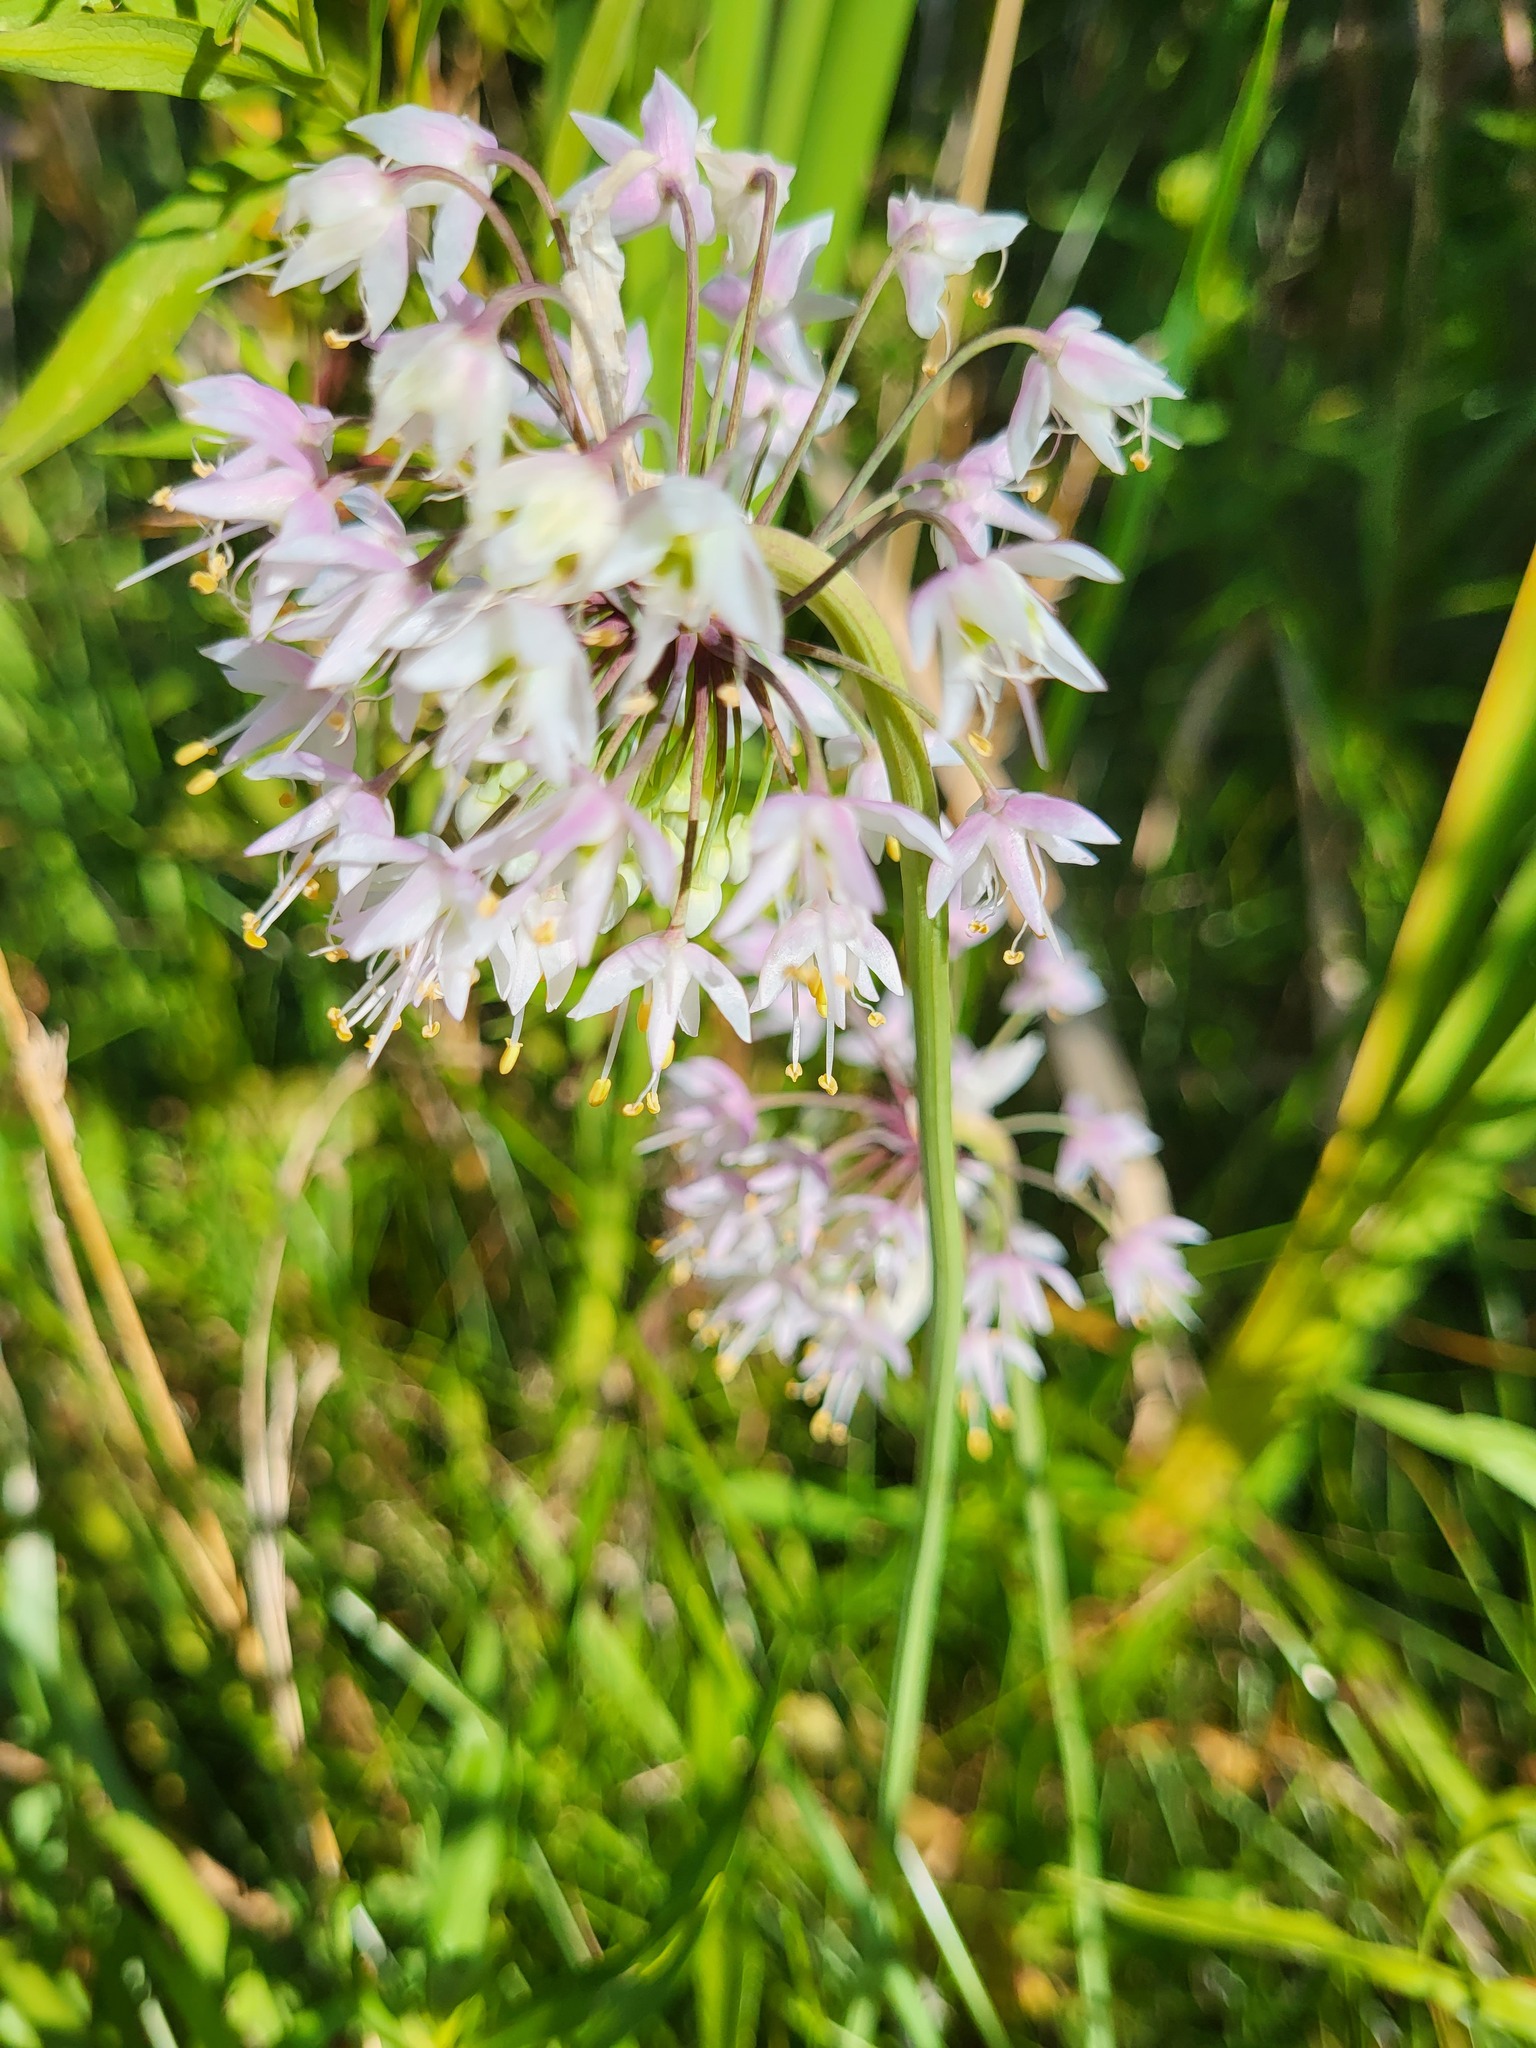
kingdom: Plantae
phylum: Tracheophyta
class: Liliopsida
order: Asparagales
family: Amaryllidaceae
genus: Allium
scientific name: Allium cernuum
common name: Nodding onion
